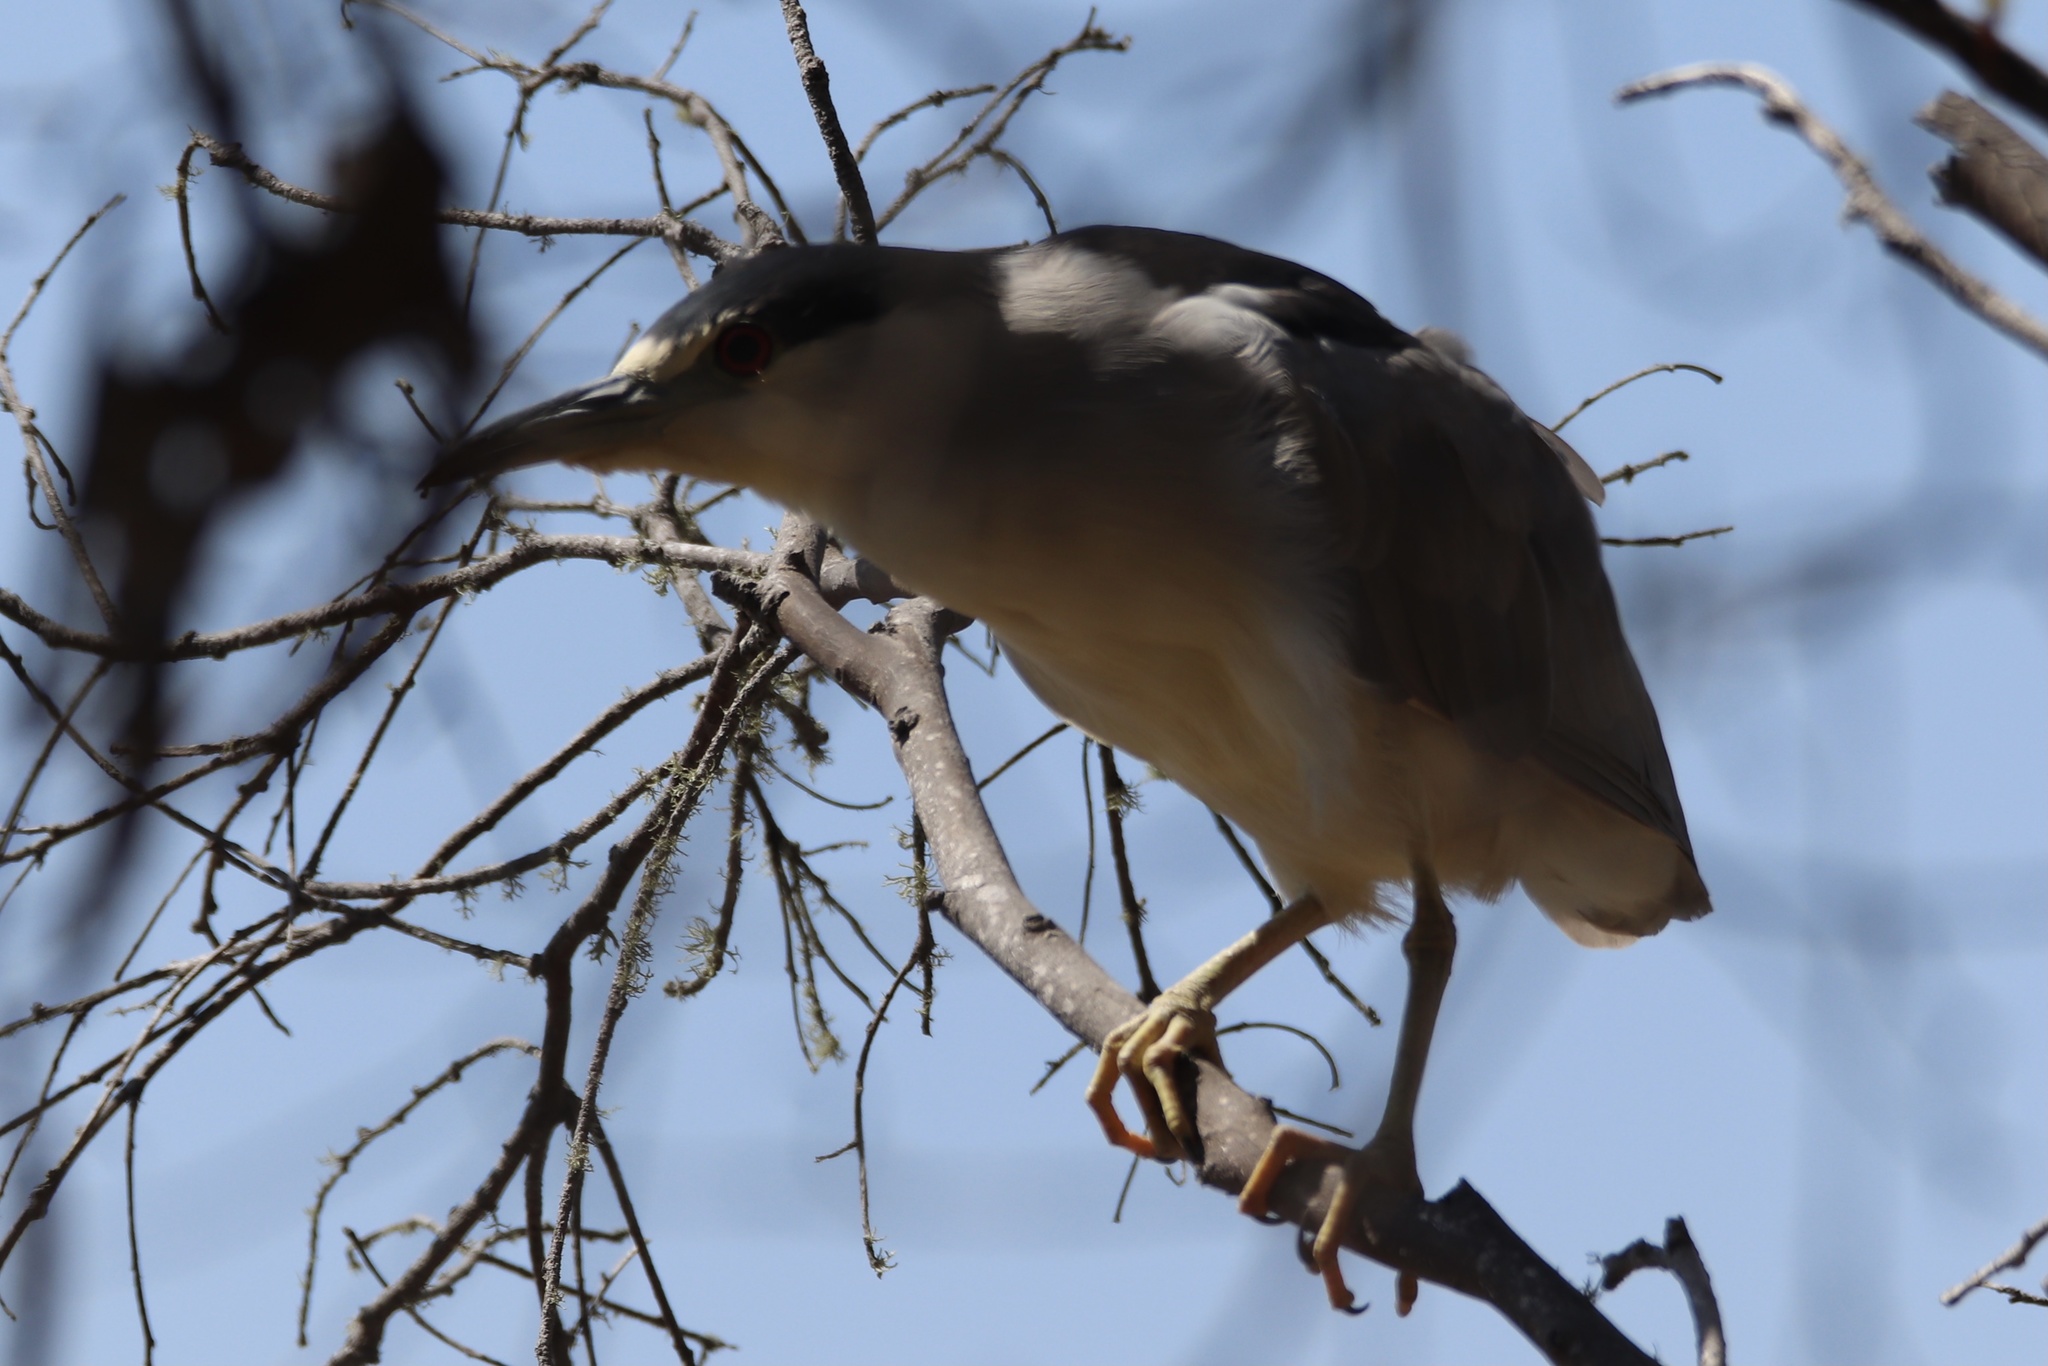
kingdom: Animalia
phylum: Chordata
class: Aves
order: Pelecaniformes
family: Ardeidae
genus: Nycticorax
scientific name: Nycticorax nycticorax
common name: Black-crowned night heron
